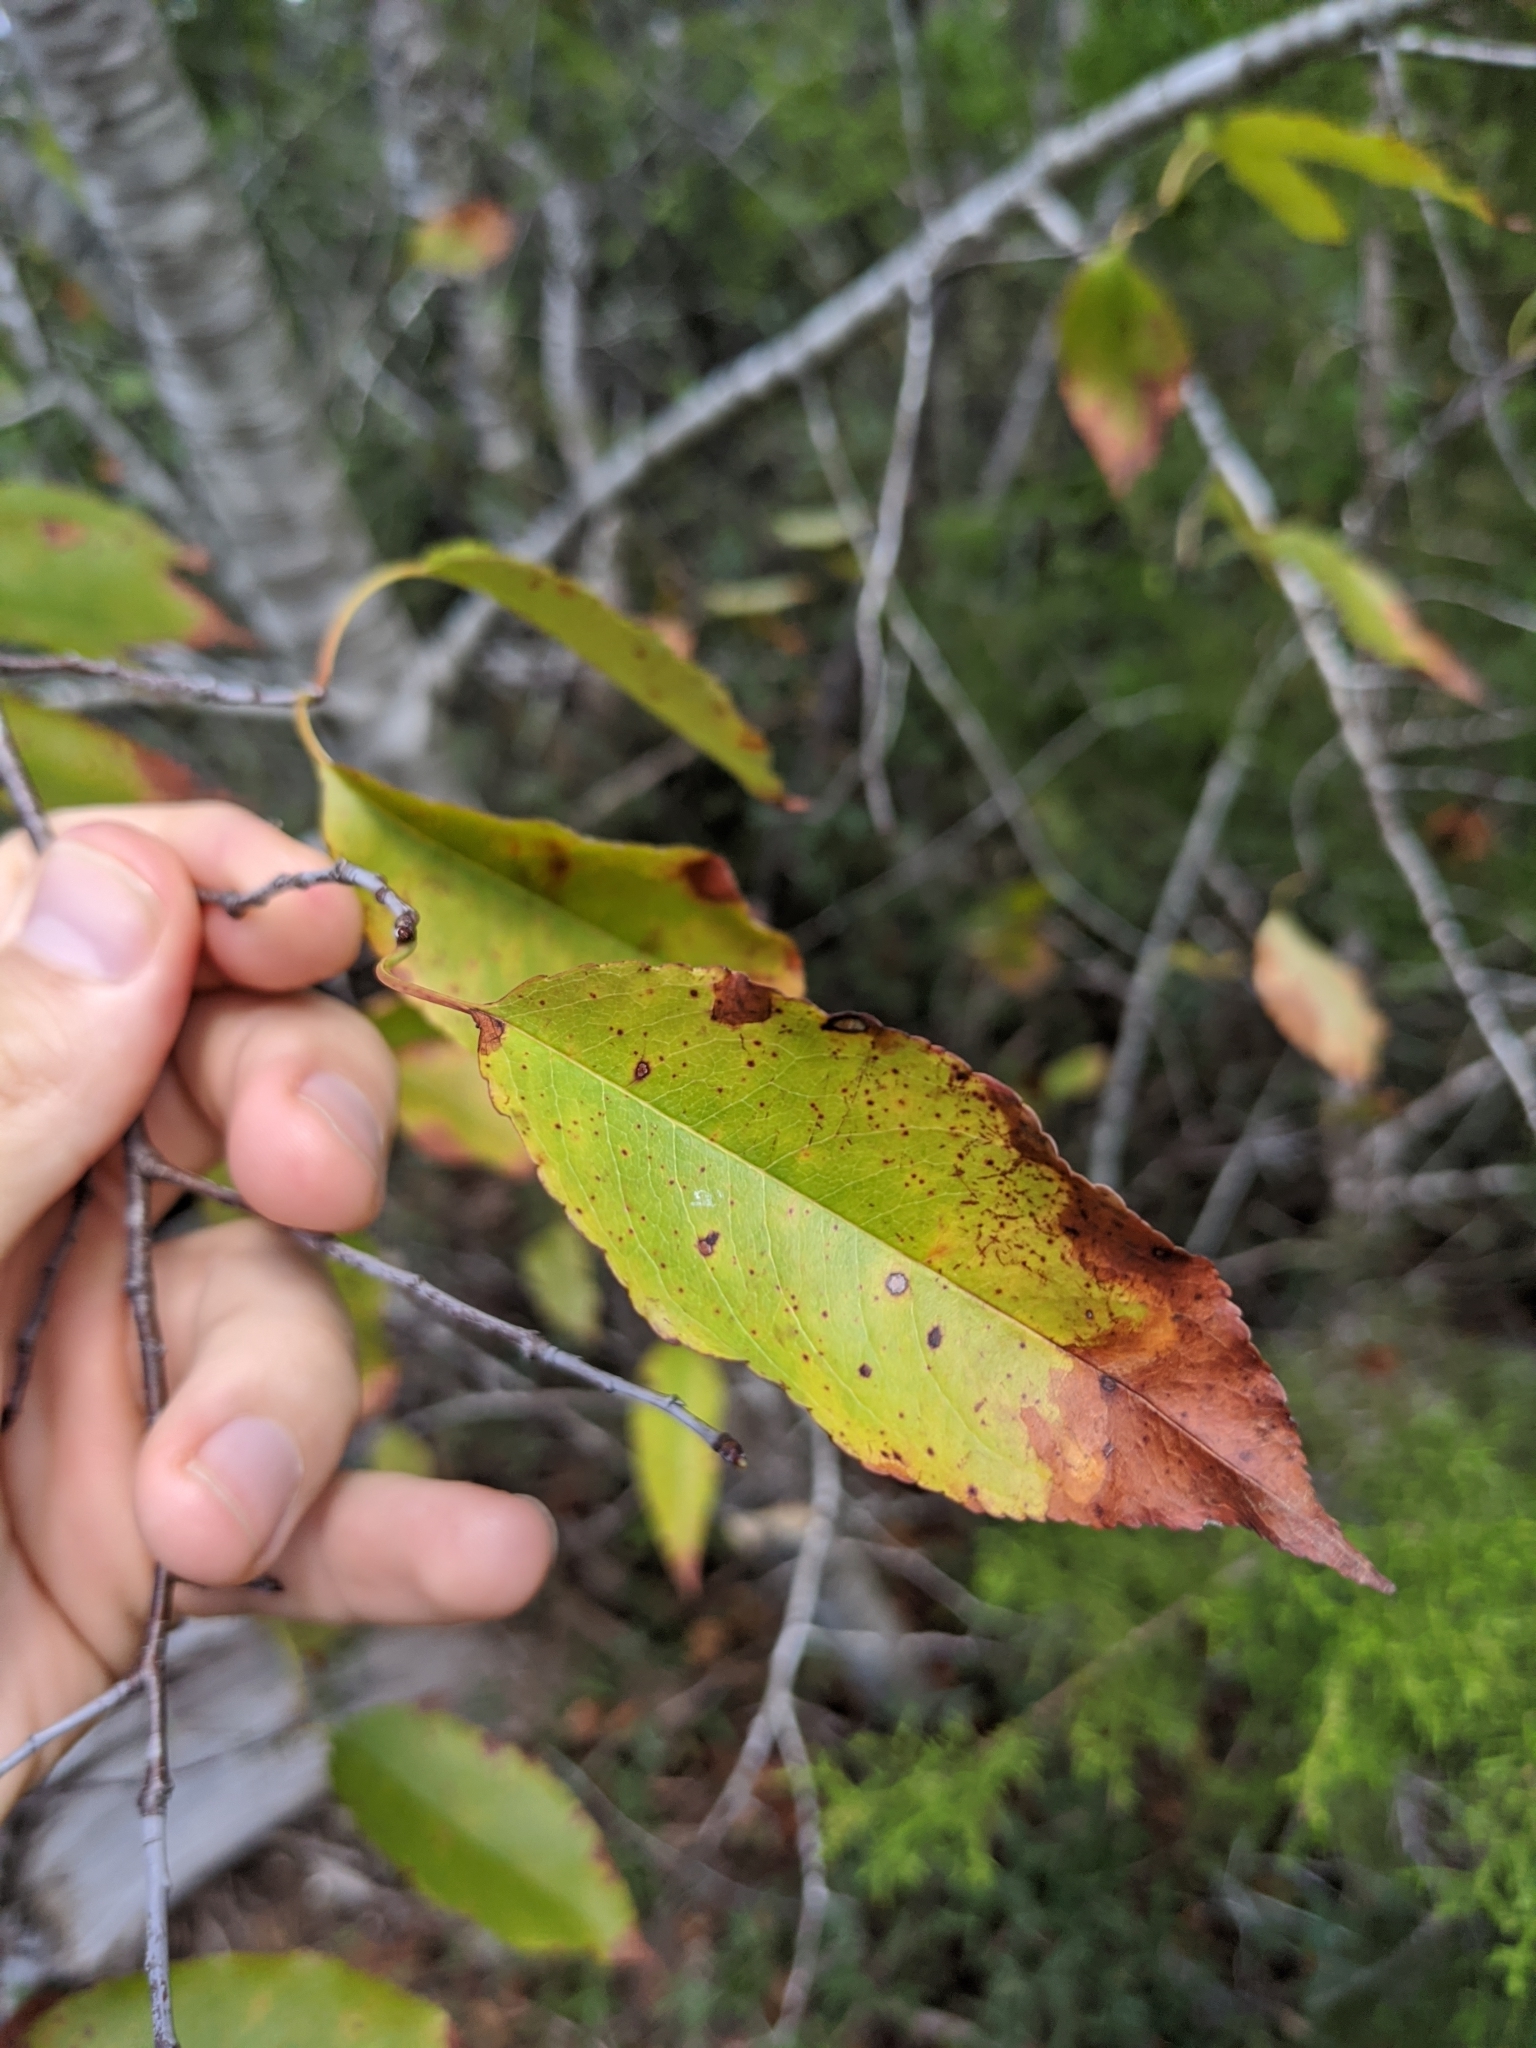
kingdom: Plantae
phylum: Tracheophyta
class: Magnoliopsida
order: Rosales
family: Rosaceae
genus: Prunus
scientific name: Prunus serotina
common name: Black cherry
